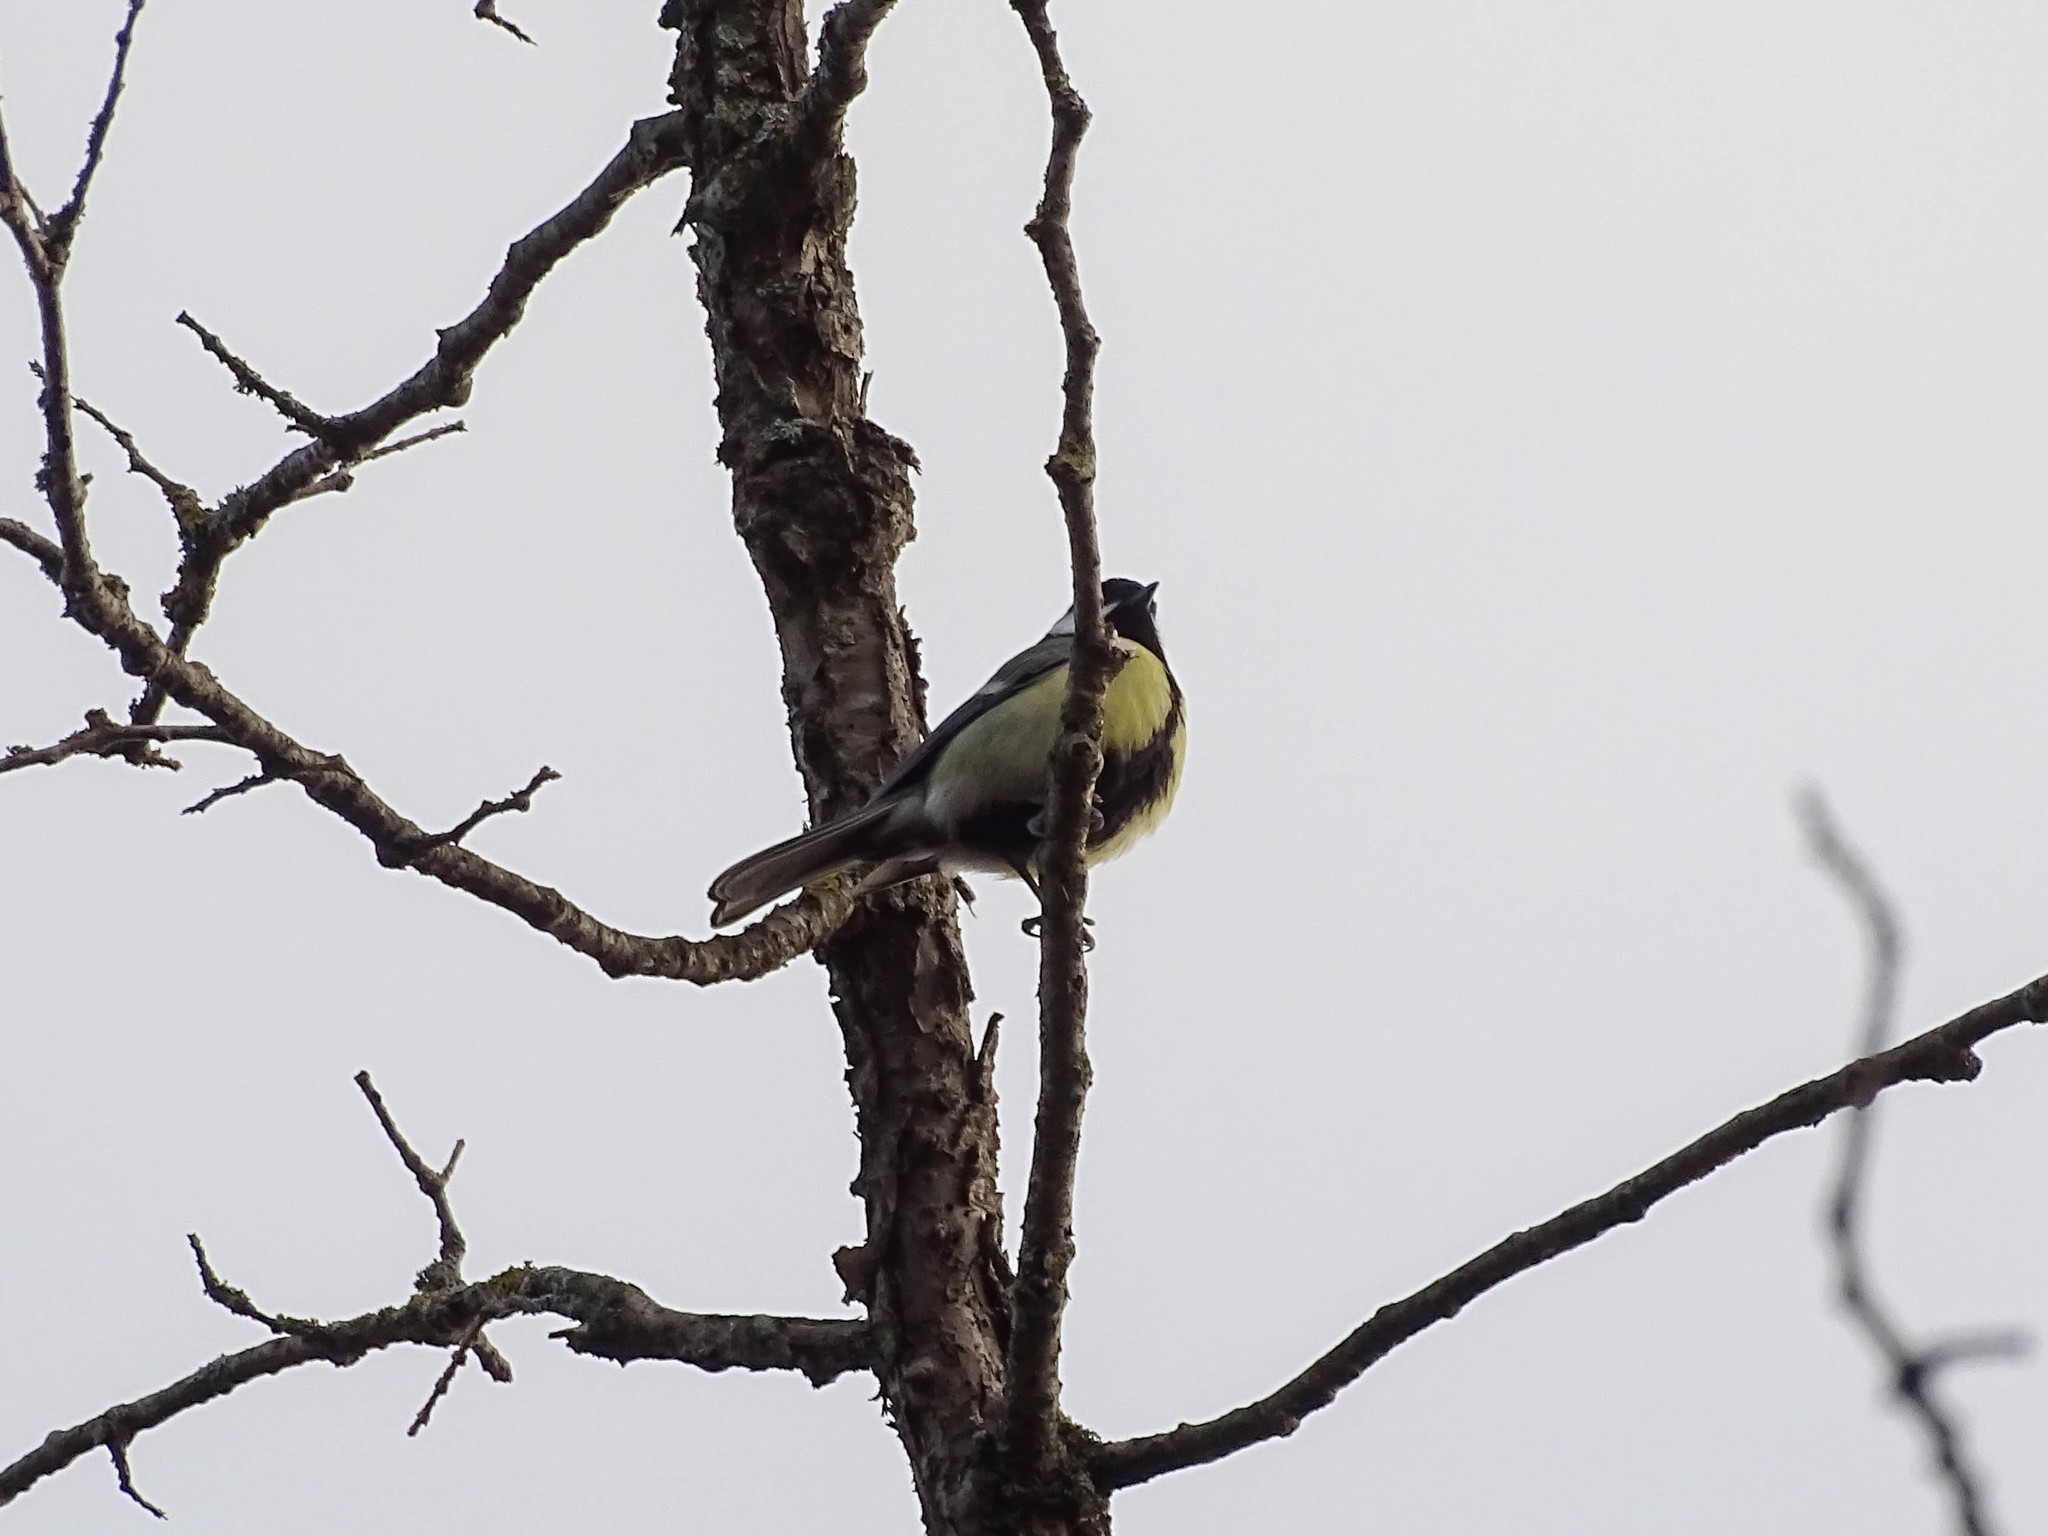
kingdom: Animalia
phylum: Chordata
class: Aves
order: Passeriformes
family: Paridae
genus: Parus
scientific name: Parus major
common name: Great tit
